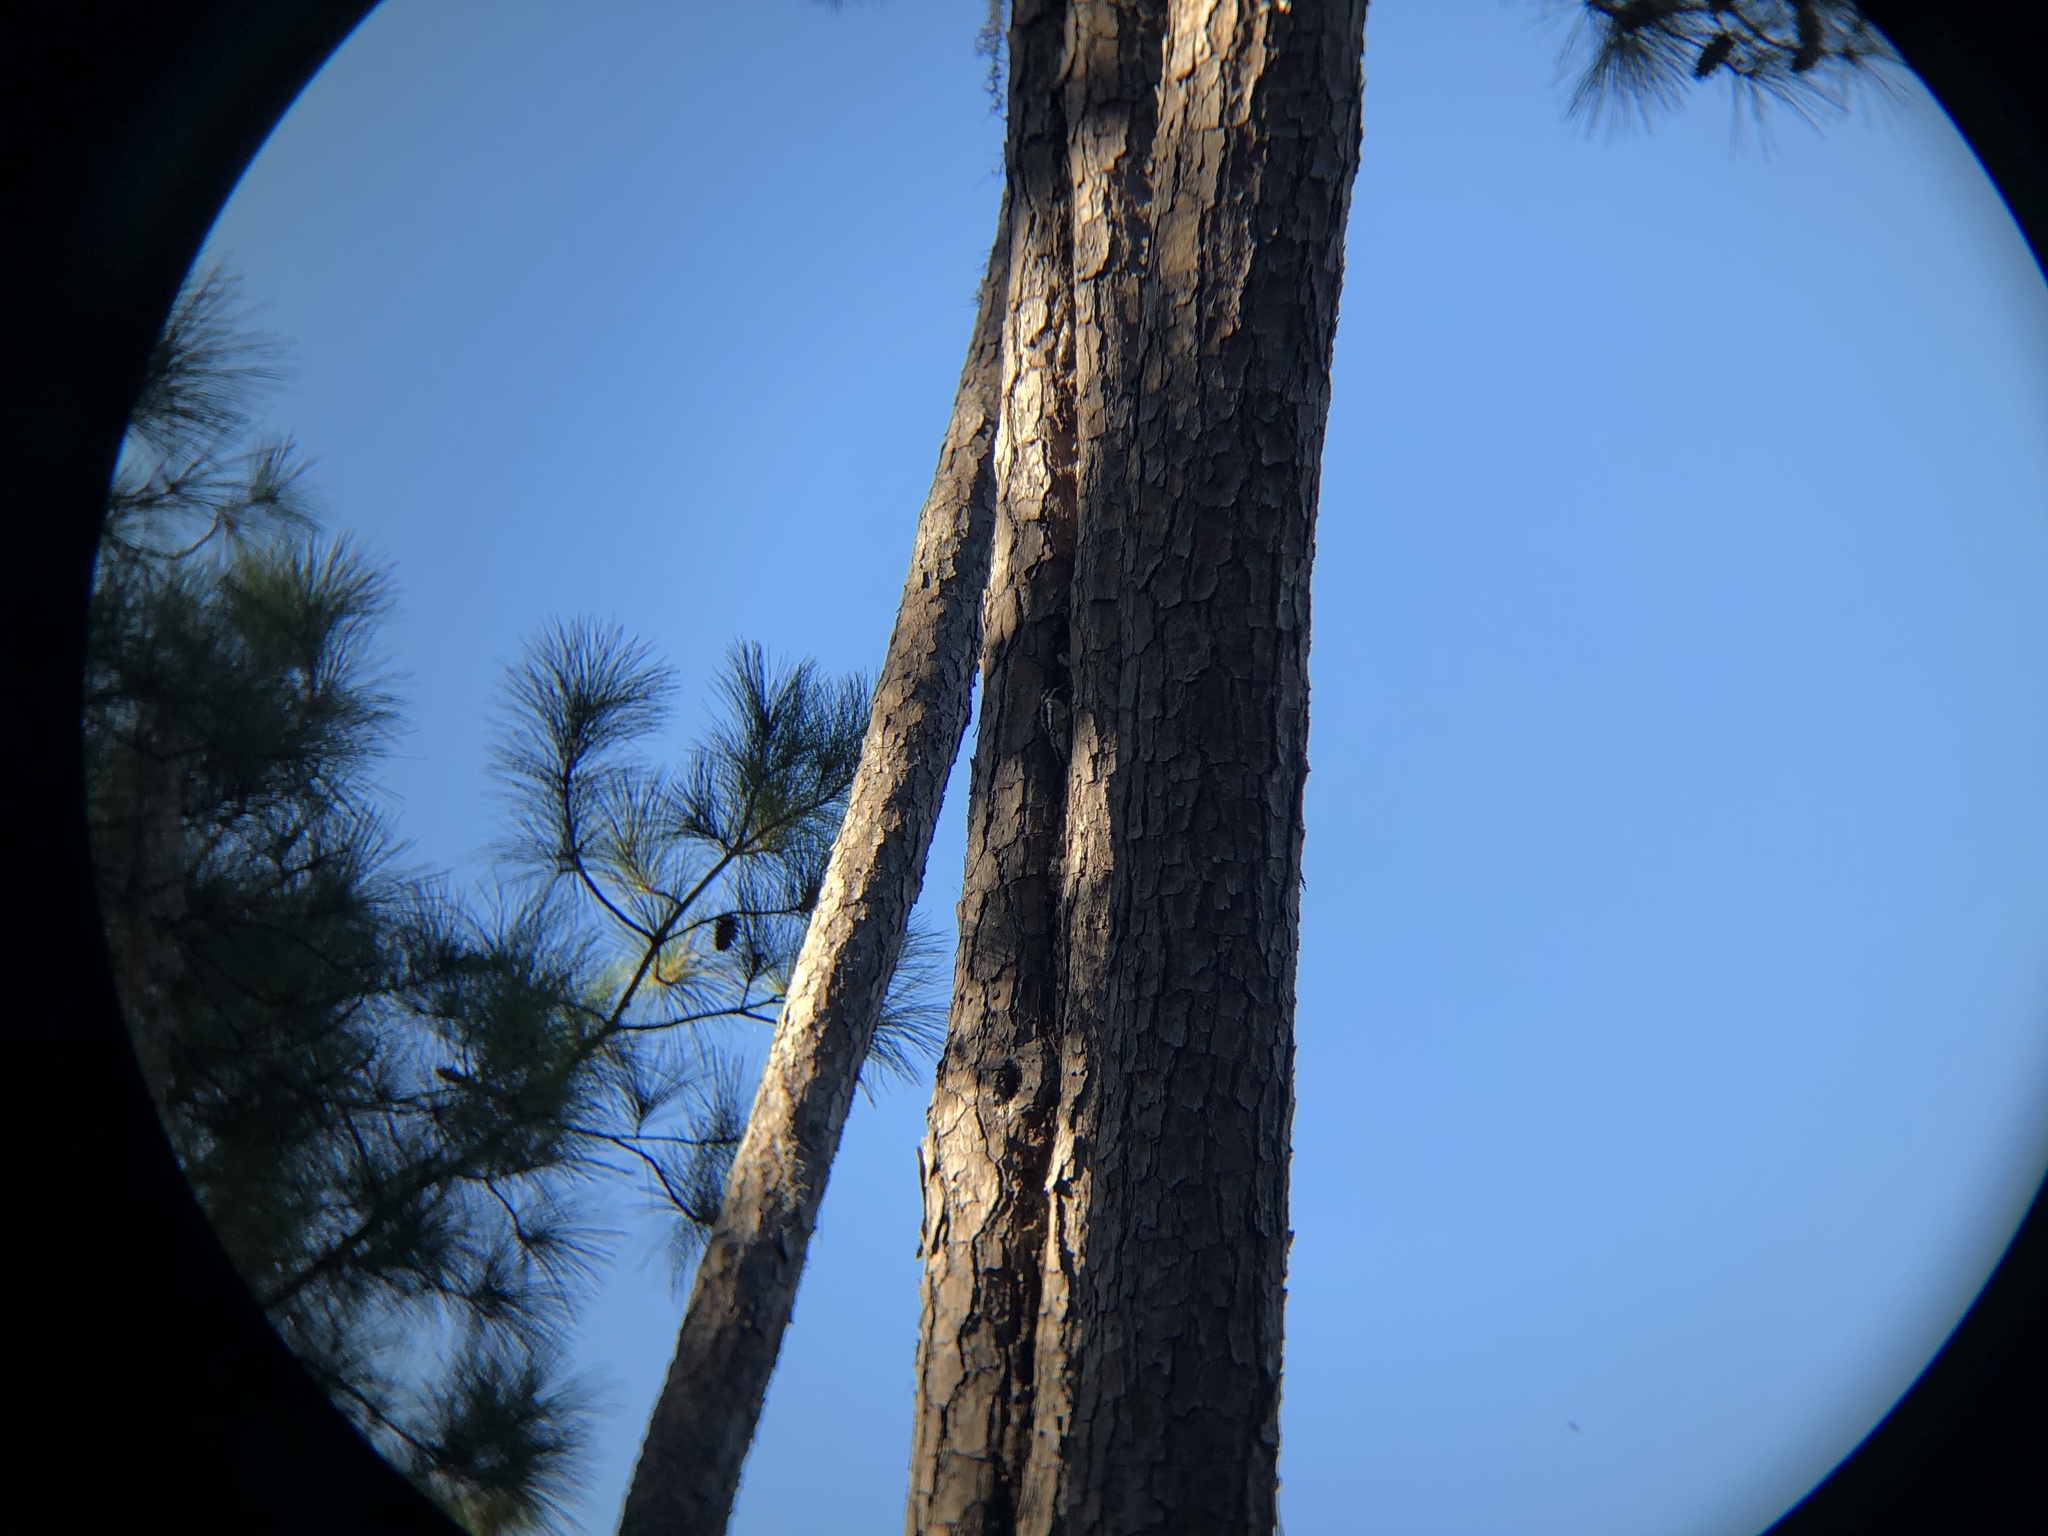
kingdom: Animalia
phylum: Chordata
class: Aves
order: Piciformes
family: Picidae
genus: Sphyrapicus
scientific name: Sphyrapicus varius
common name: Yellow-bellied sapsucker
